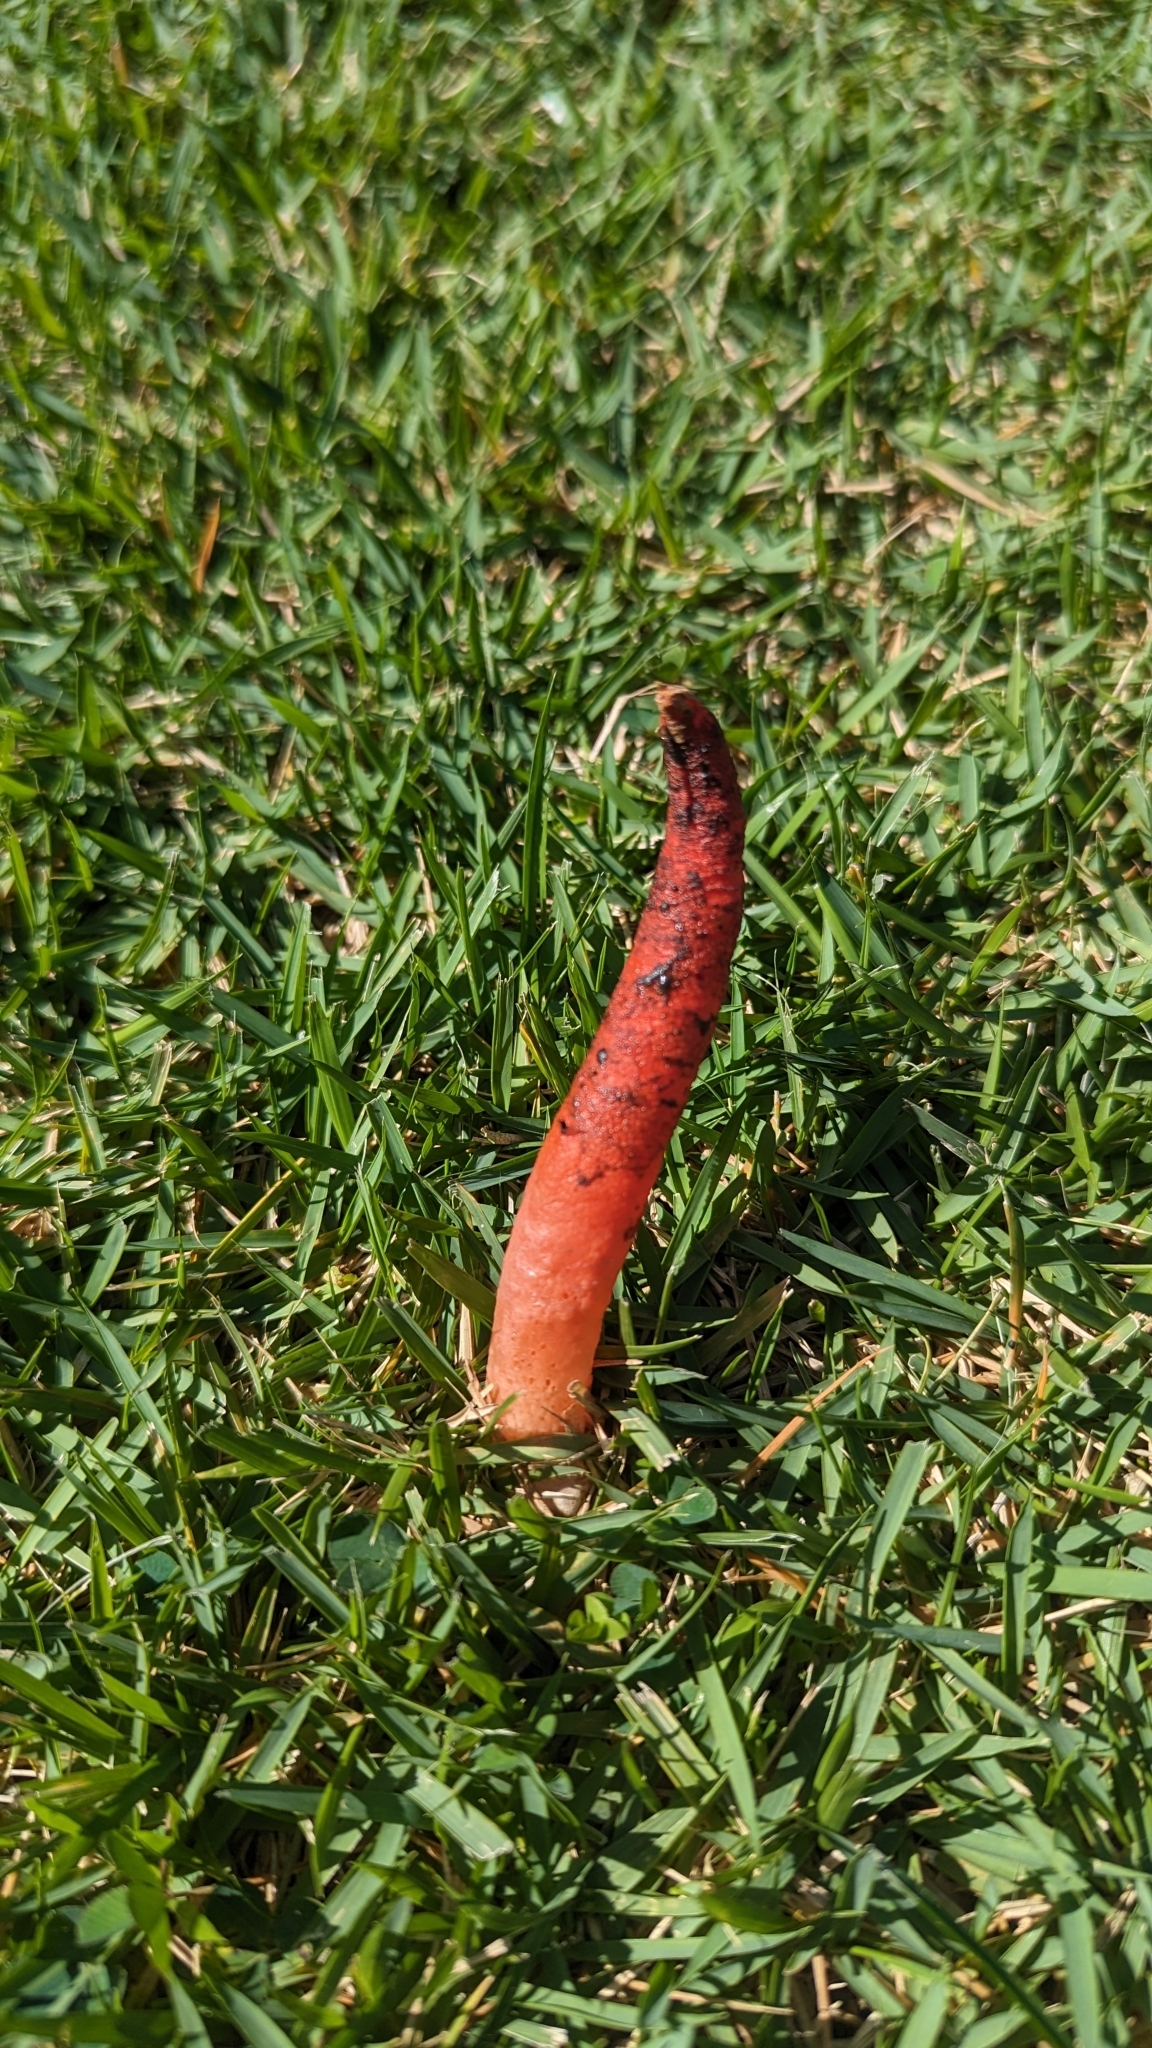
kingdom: Fungi
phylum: Basidiomycota
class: Agaricomycetes
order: Phallales
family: Phallaceae
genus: Mutinus
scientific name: Mutinus elegans
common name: Devil's dipstick
